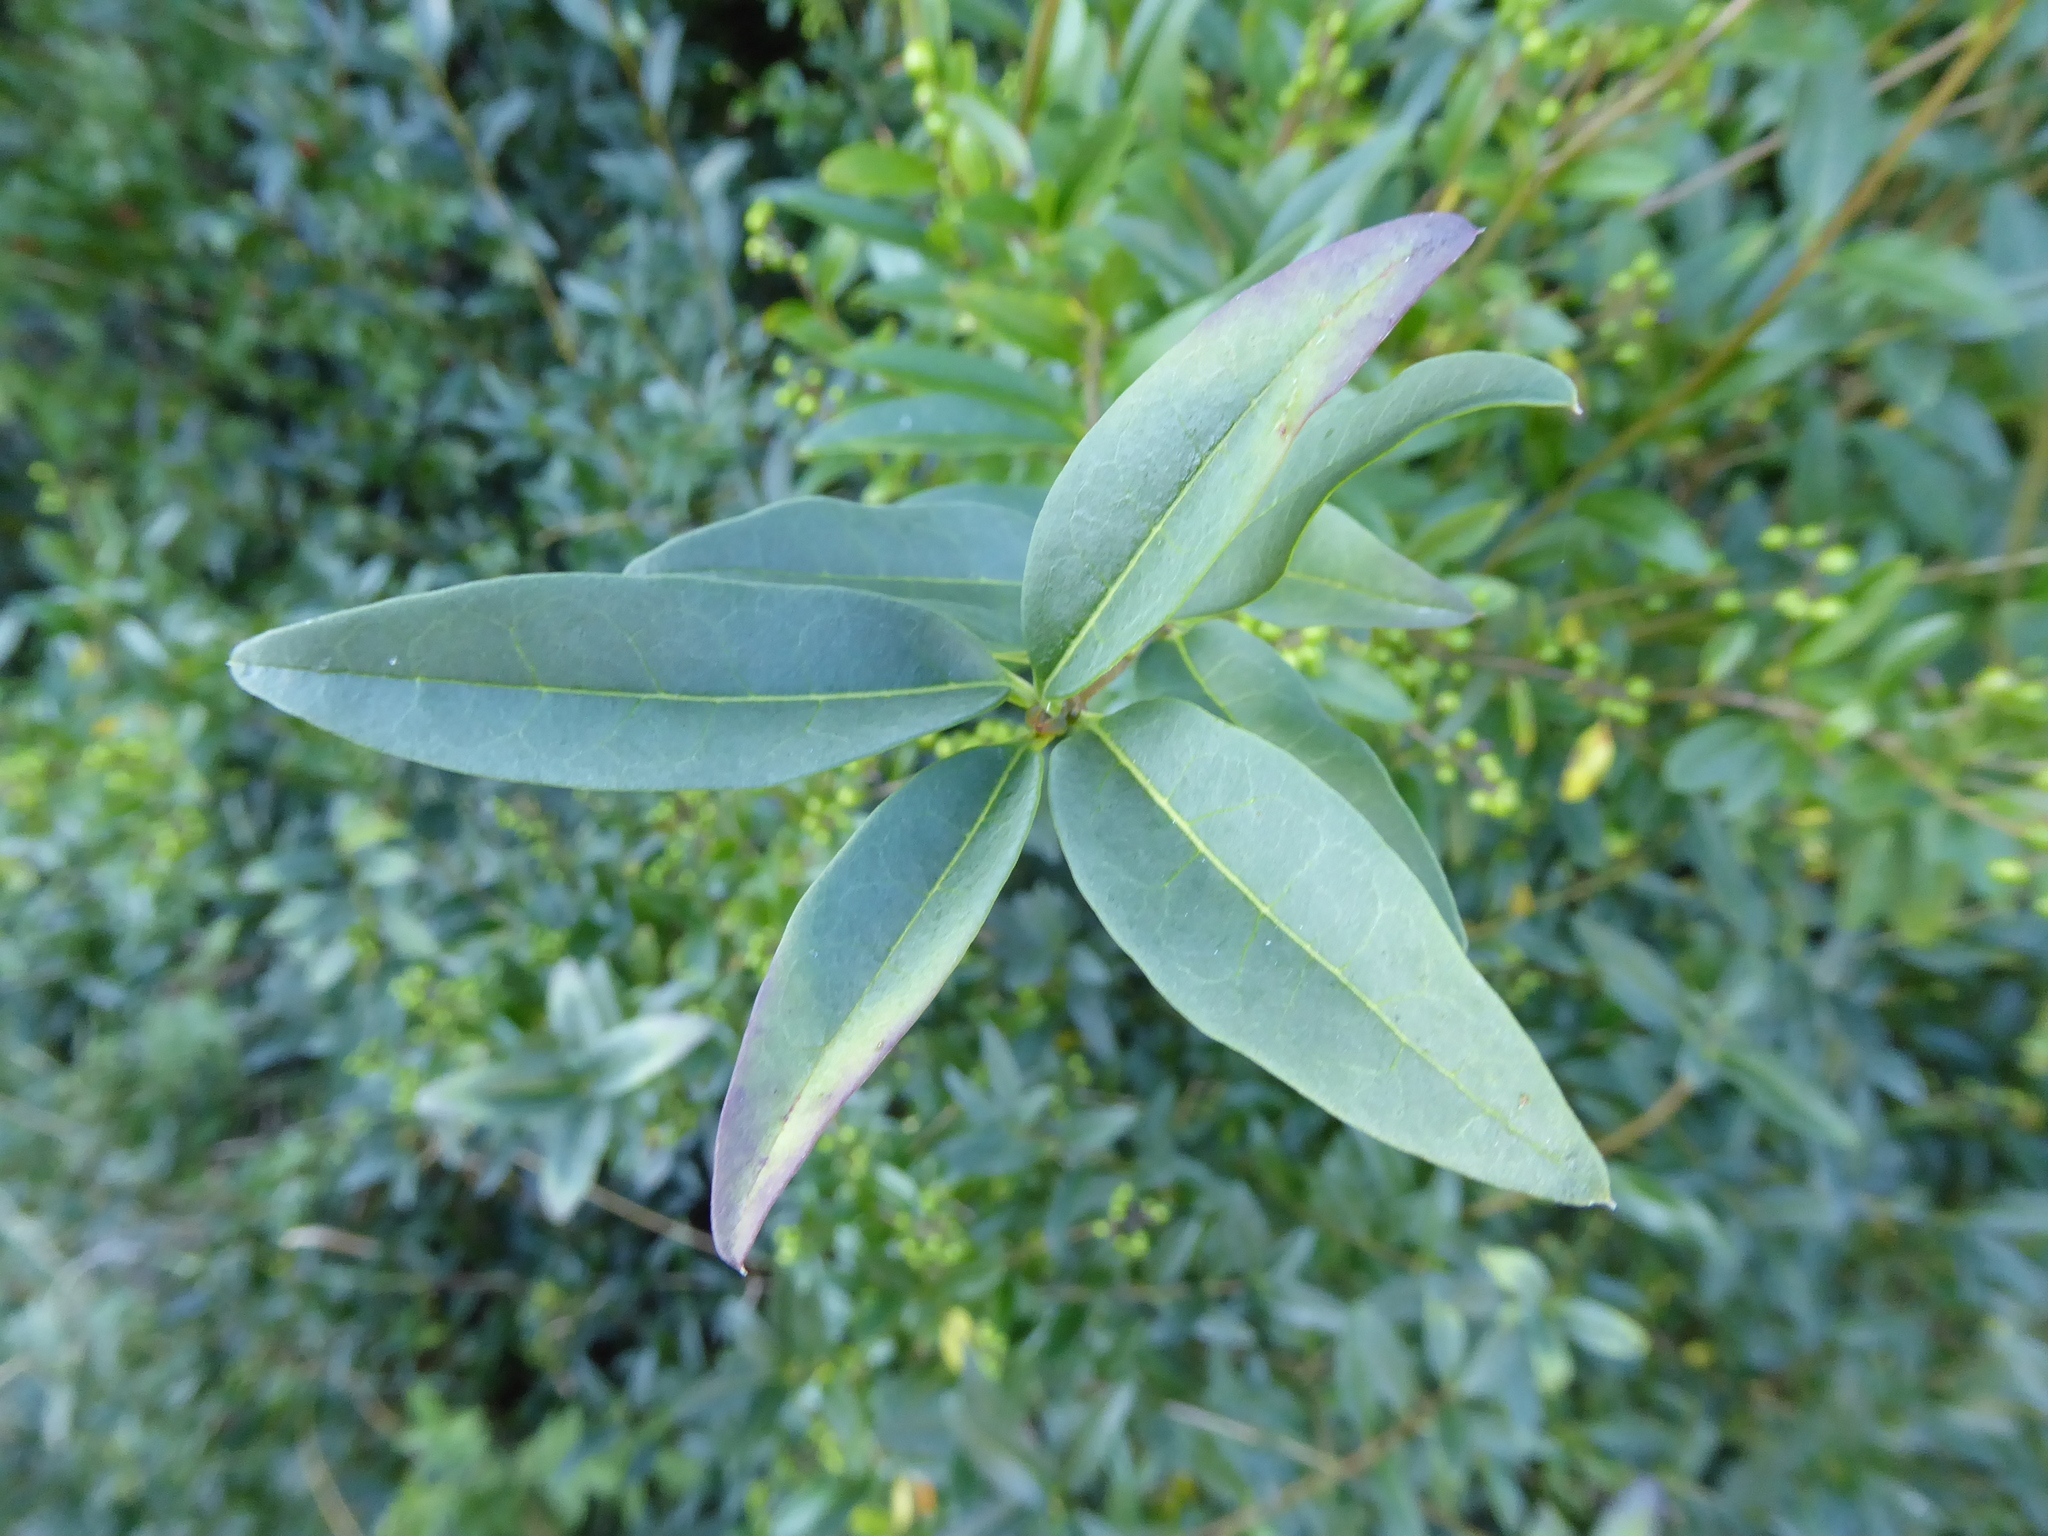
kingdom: Plantae
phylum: Tracheophyta
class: Magnoliopsida
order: Lamiales
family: Oleaceae
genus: Ligustrum
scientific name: Ligustrum vulgare
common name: Wild privet
